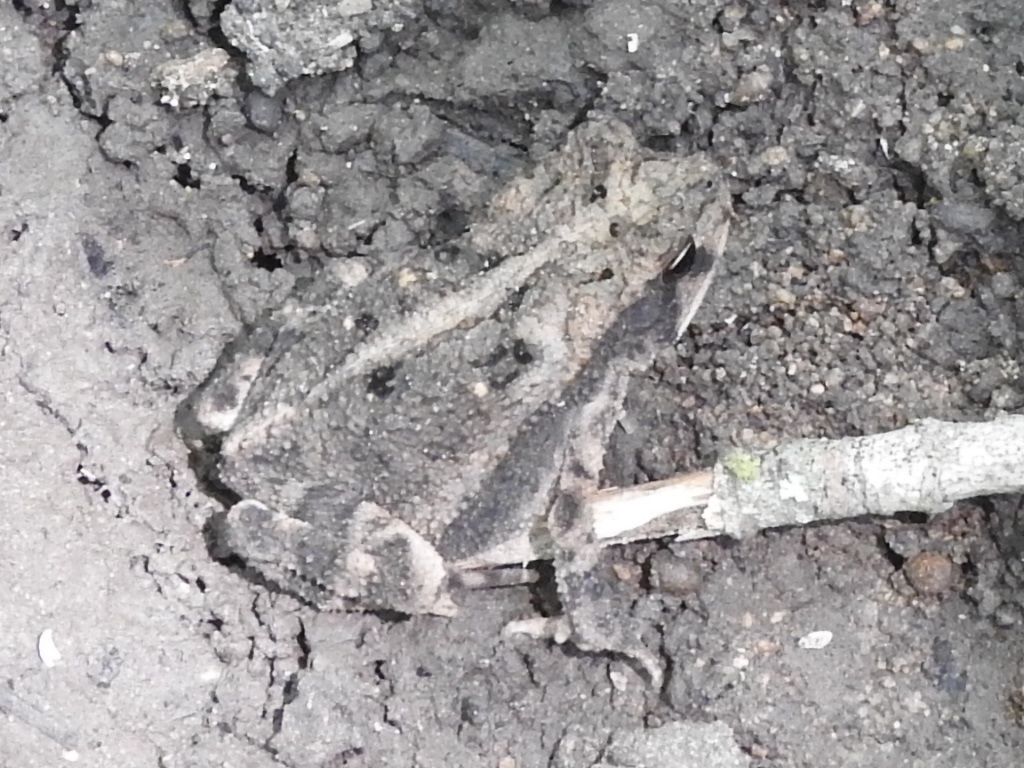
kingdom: Animalia
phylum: Chordata
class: Amphibia
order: Anura
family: Bufonidae
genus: Incilius
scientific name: Incilius nebulifer
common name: Gulf coast toad
